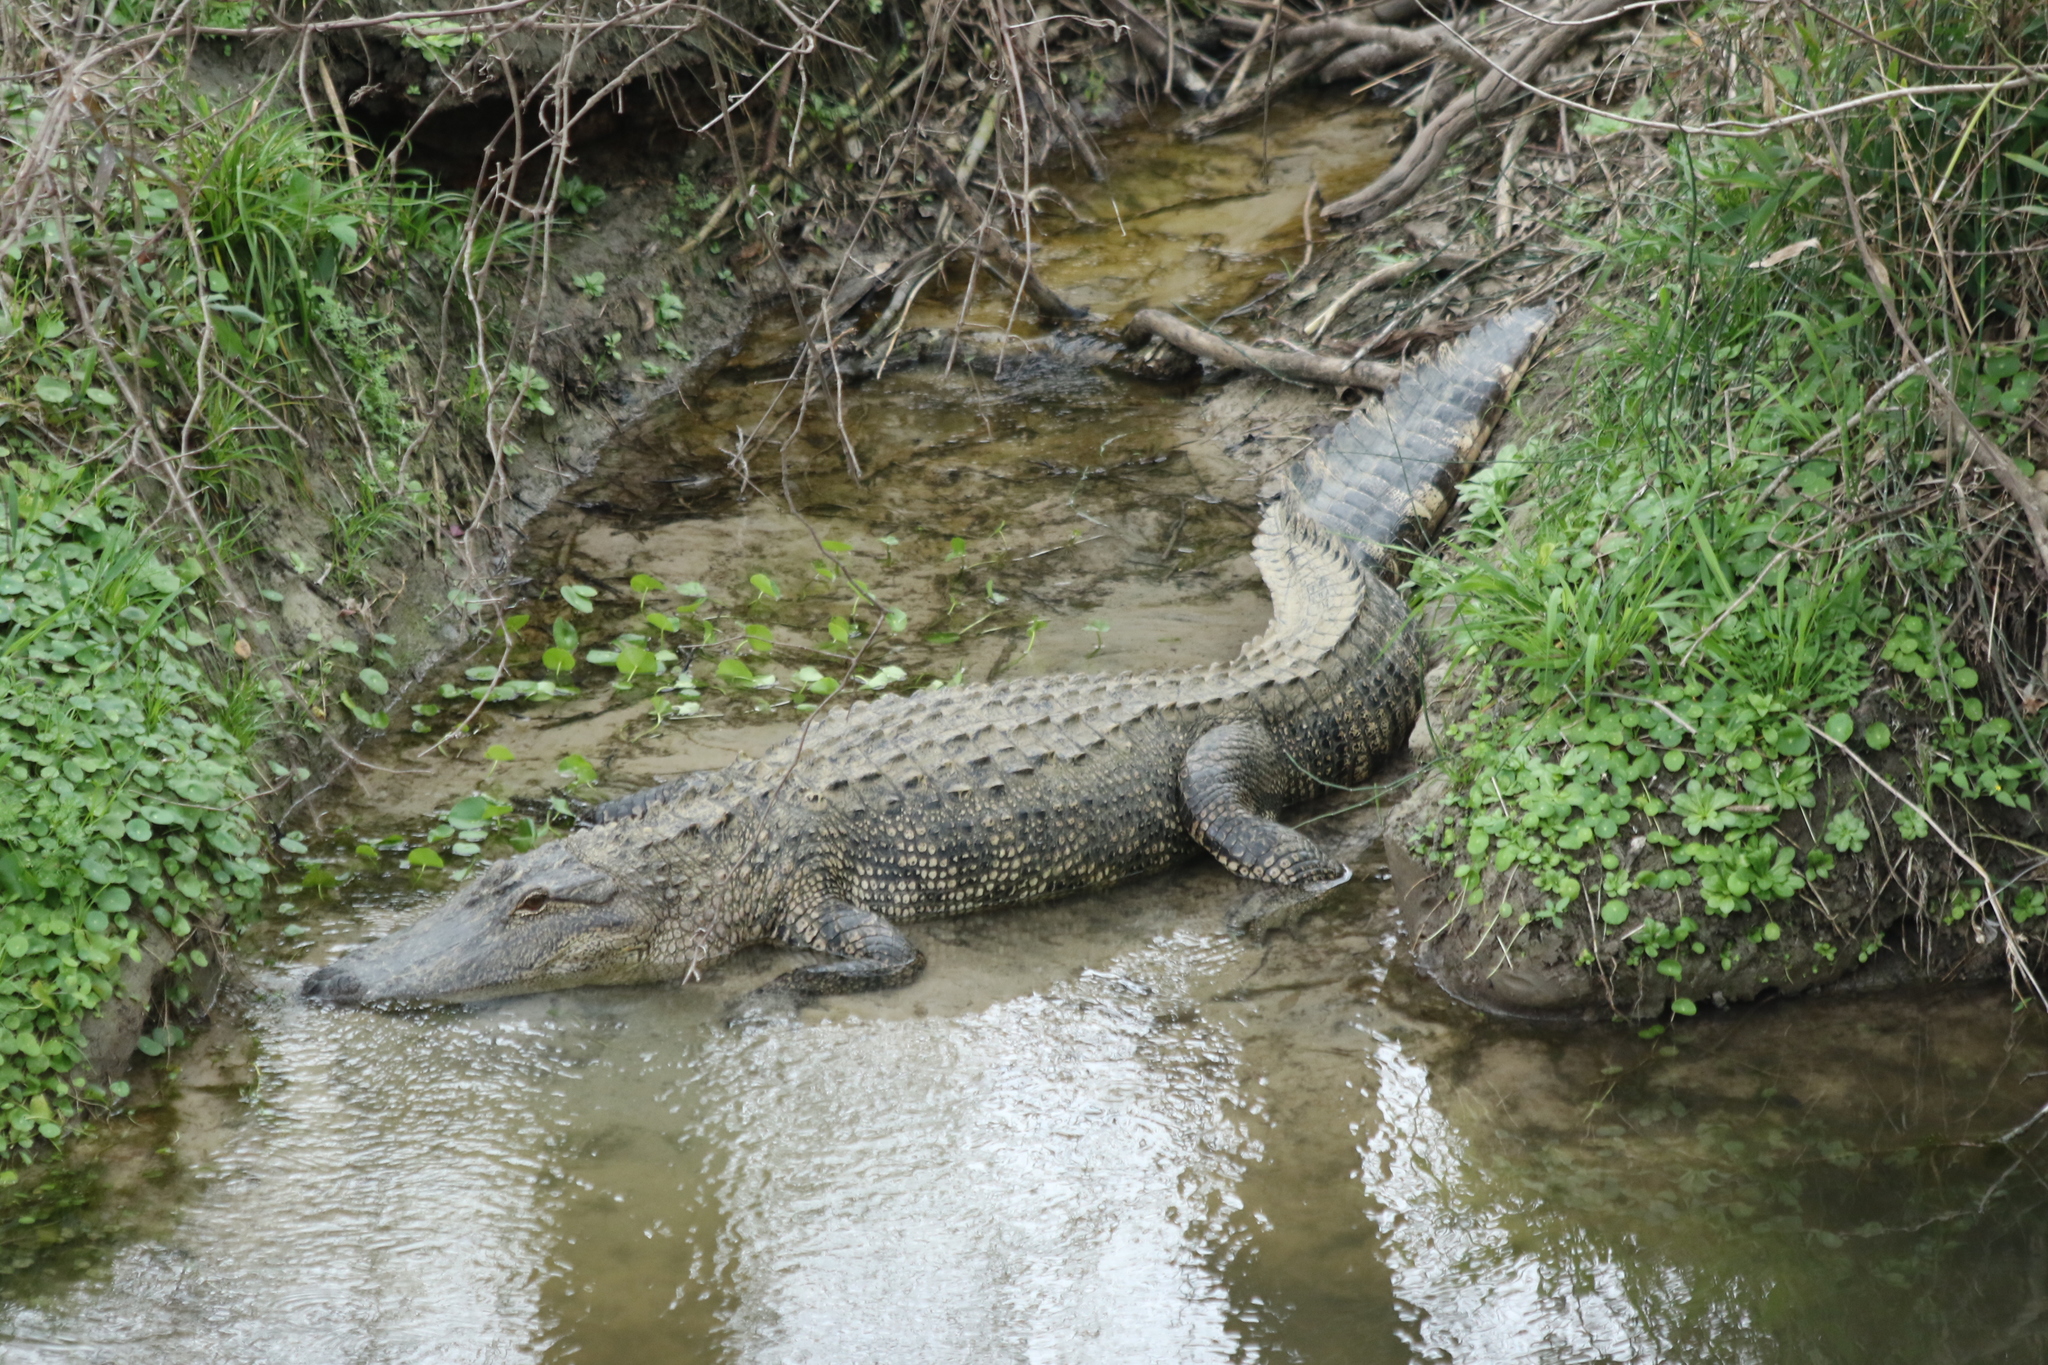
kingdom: Animalia
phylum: Chordata
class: Crocodylia
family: Alligatoridae
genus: Alligator
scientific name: Alligator mississippiensis
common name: American alligator
